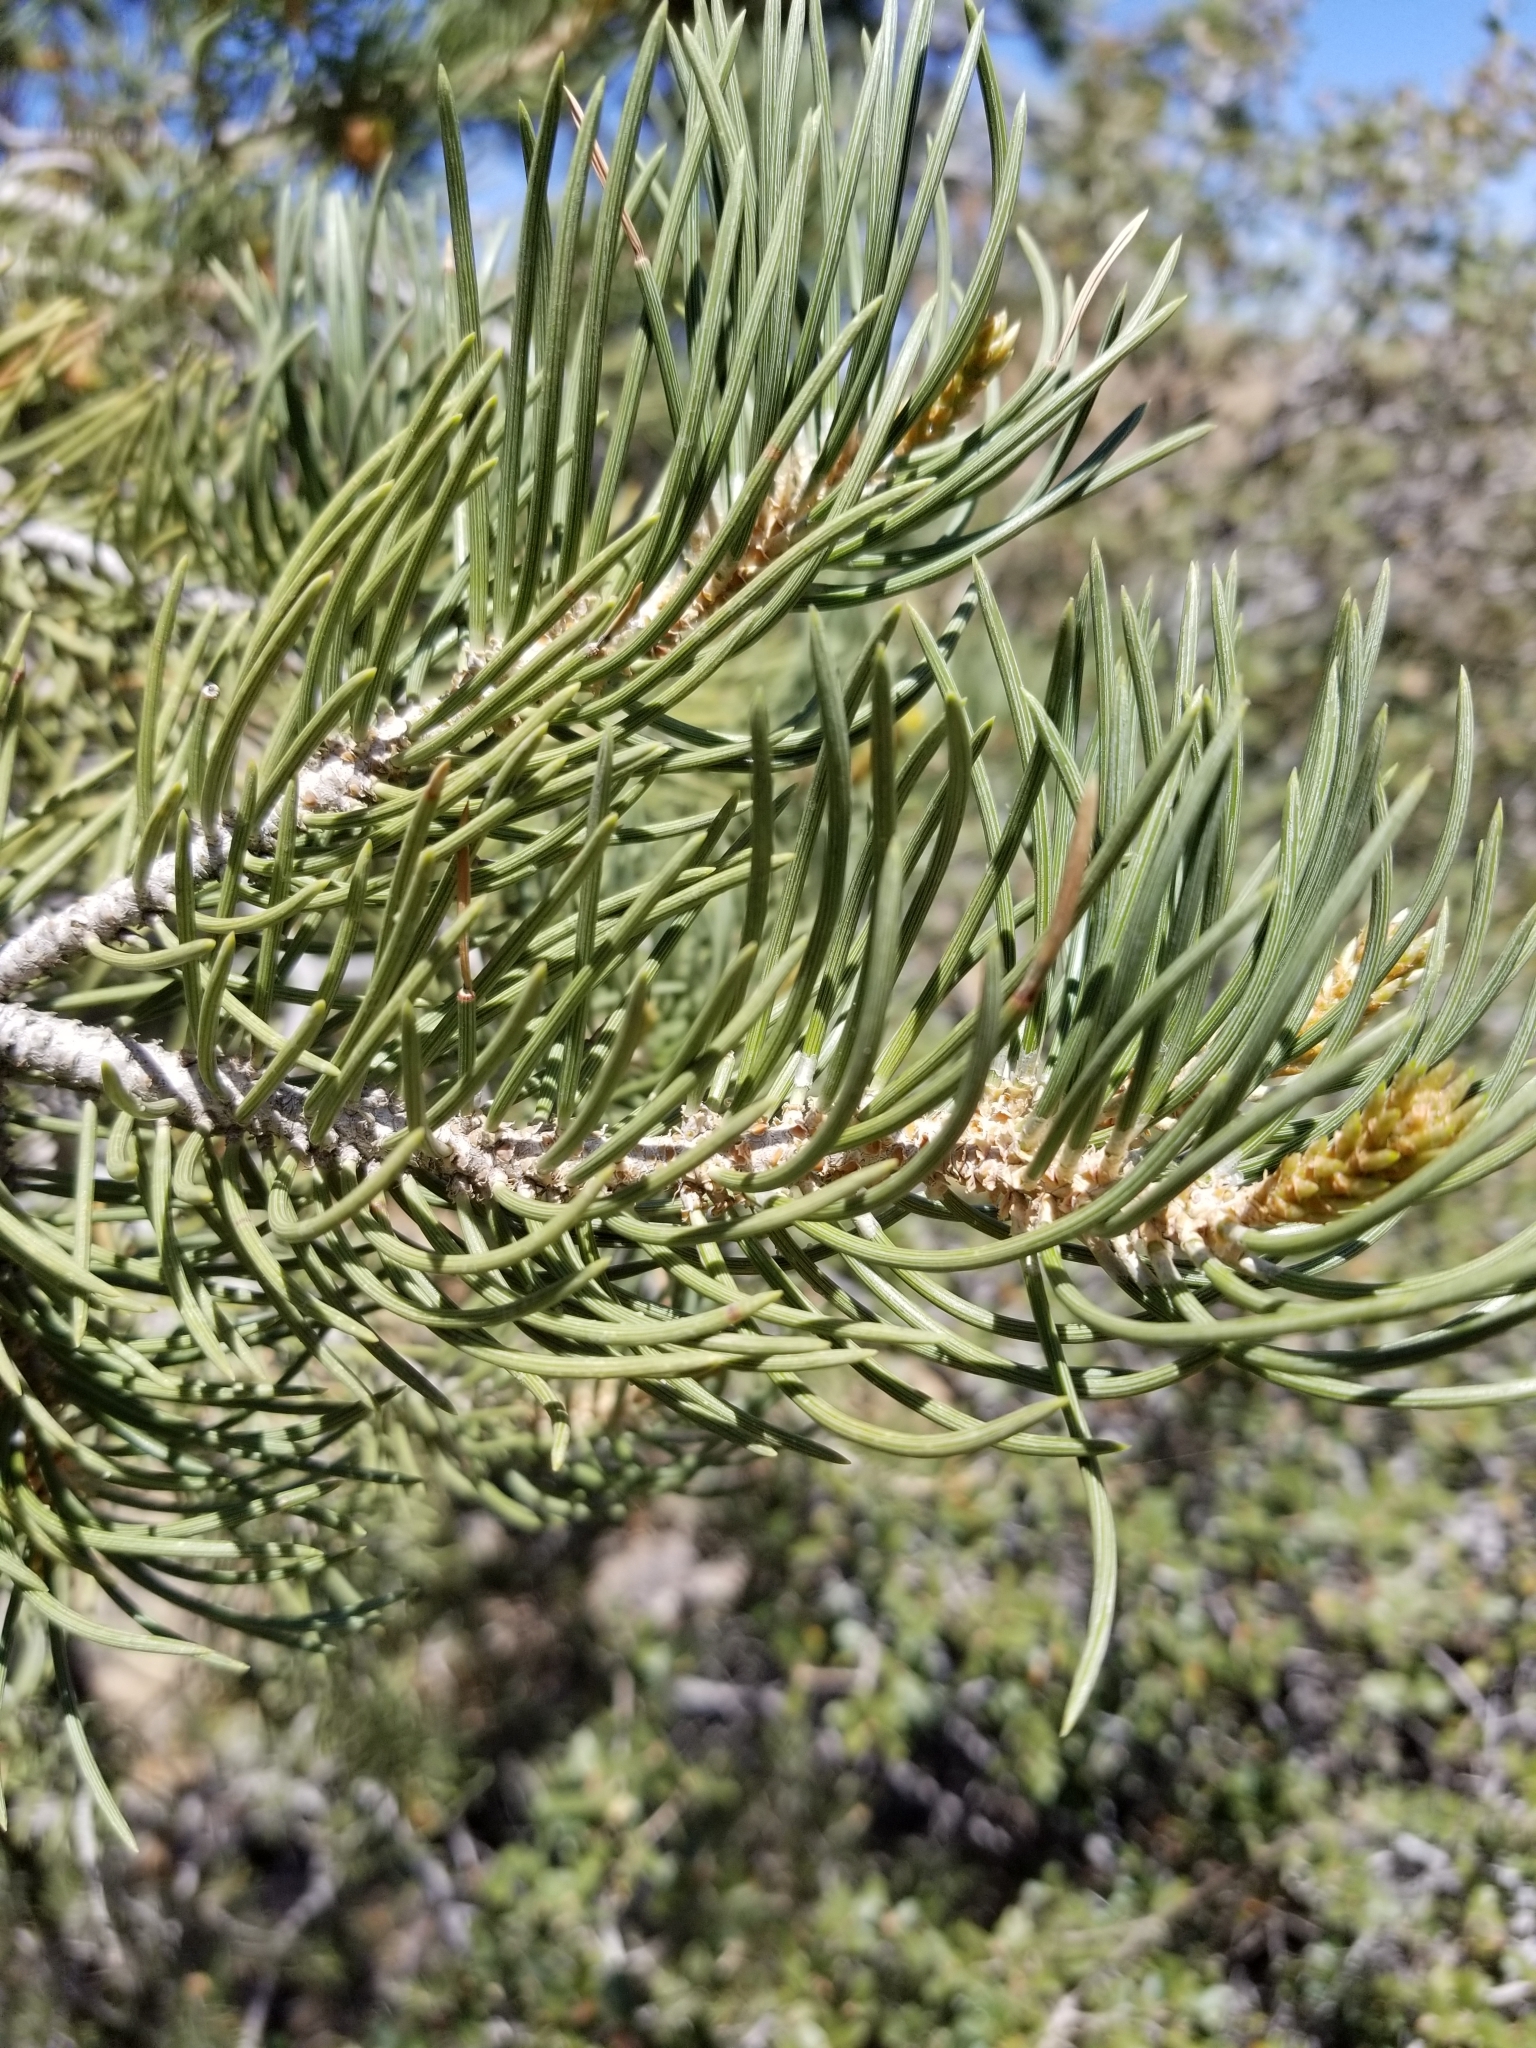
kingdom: Plantae
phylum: Tracheophyta
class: Pinopsida
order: Pinales
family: Pinaceae
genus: Pinus
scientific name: Pinus monophylla
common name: One-leaved nut pine
